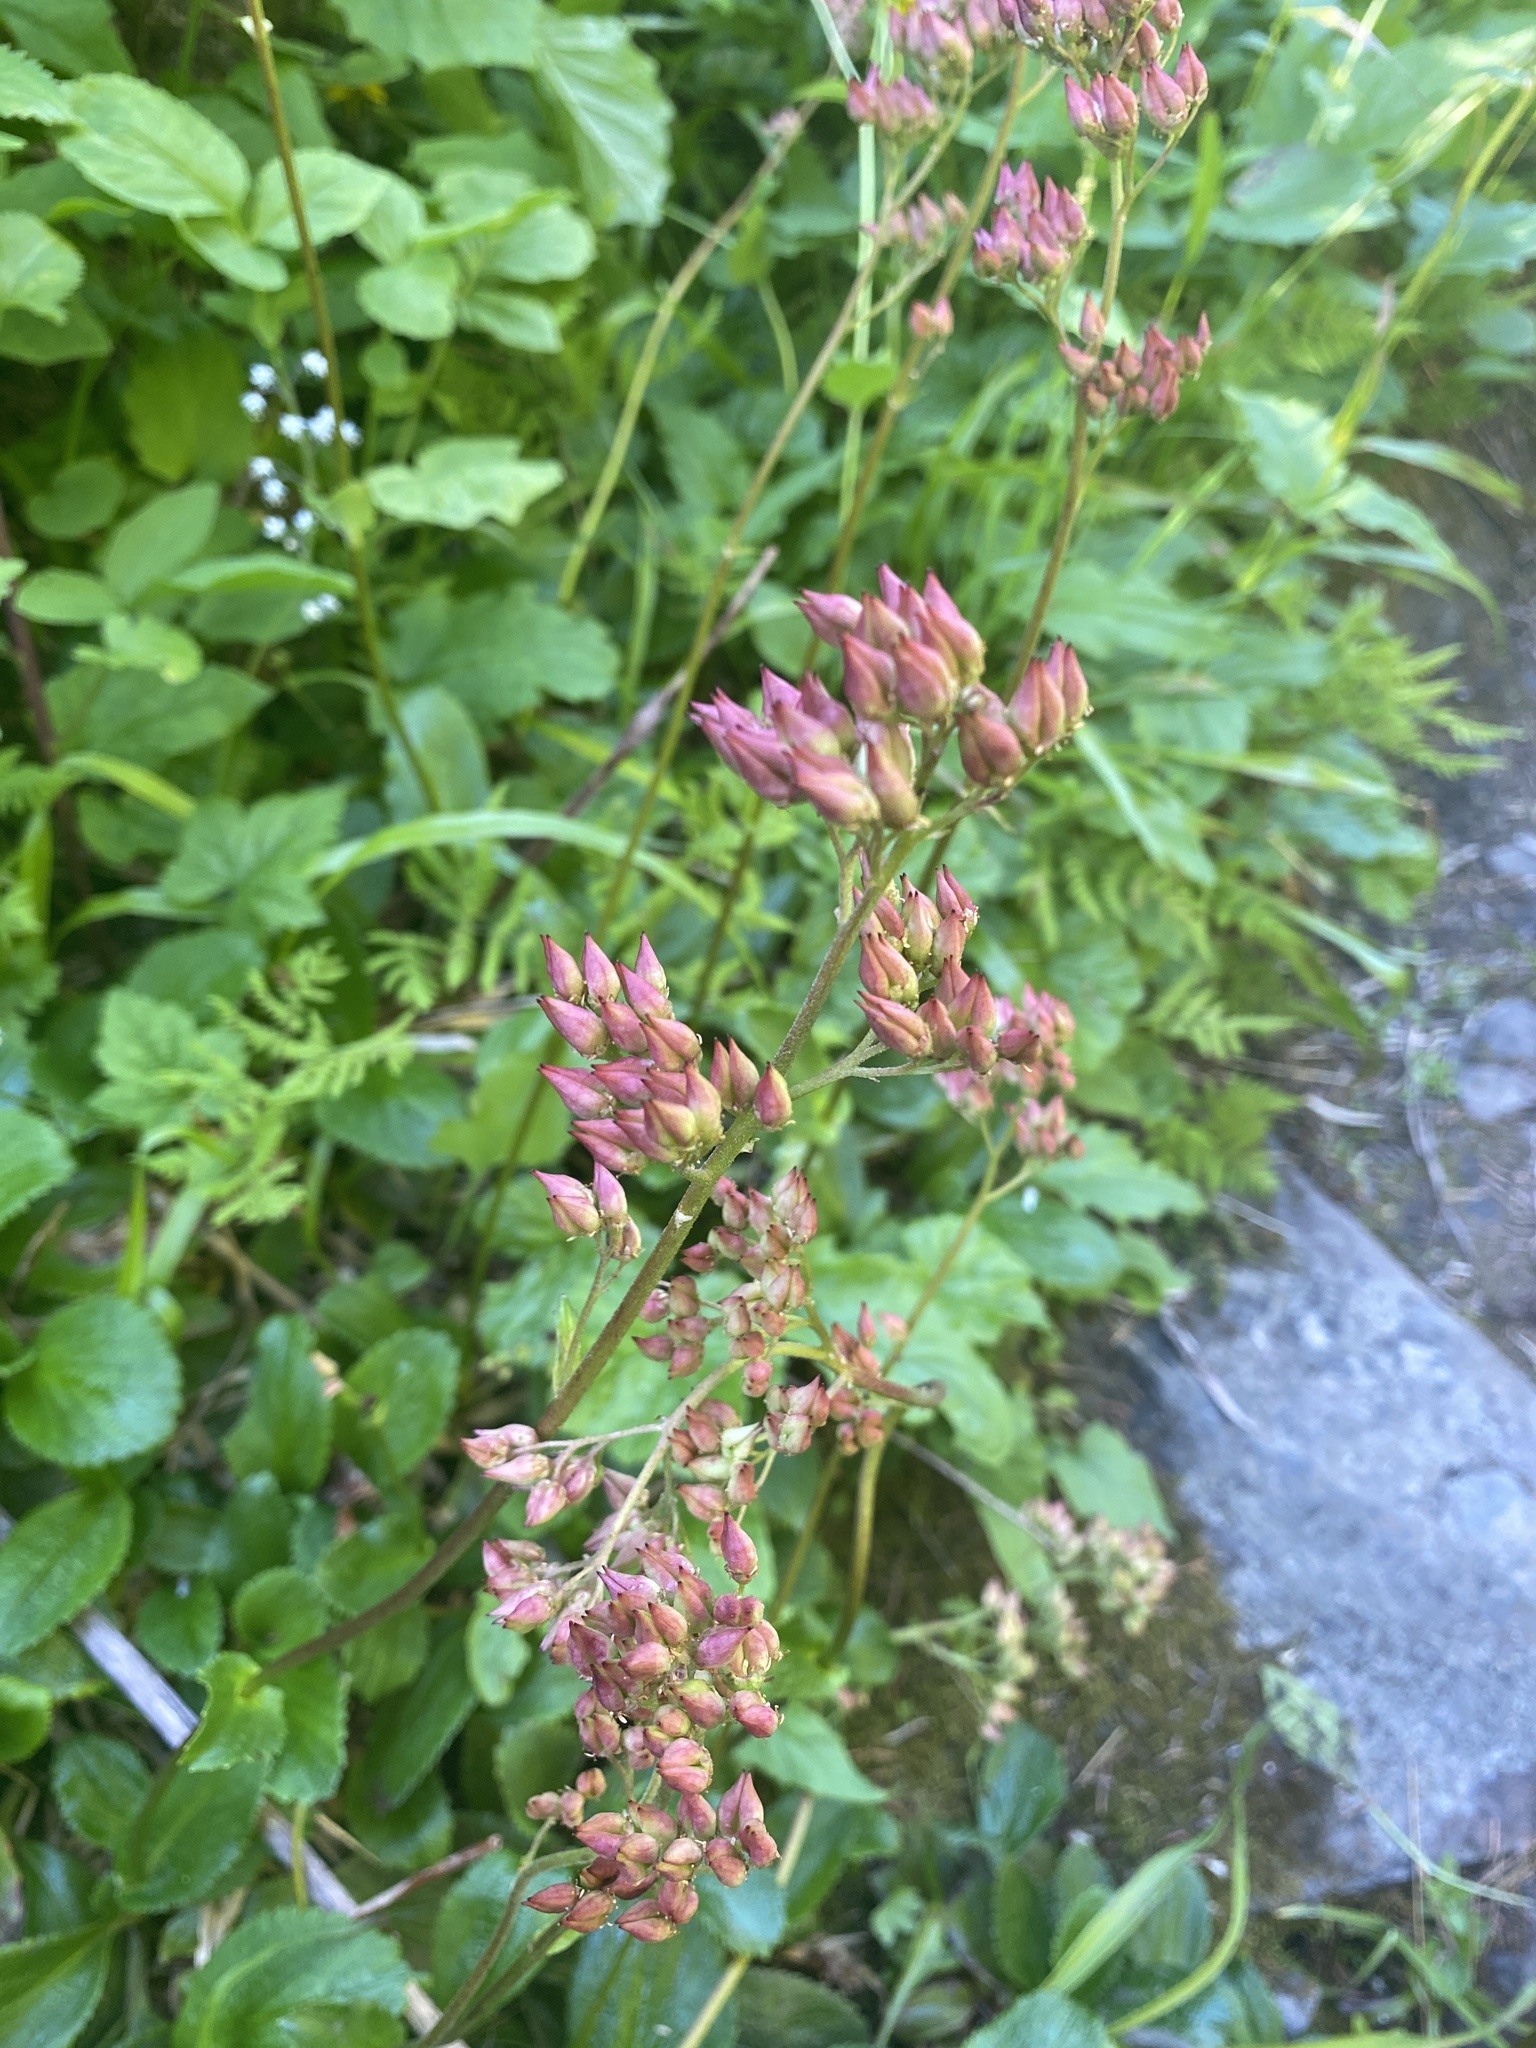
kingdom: Plantae
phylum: Tracheophyta
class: Magnoliopsida
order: Saxifragales
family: Saxifragaceae
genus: Leptarrhena
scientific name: Leptarrhena pyrolifolia
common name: Leatherleaf-saxifrage
